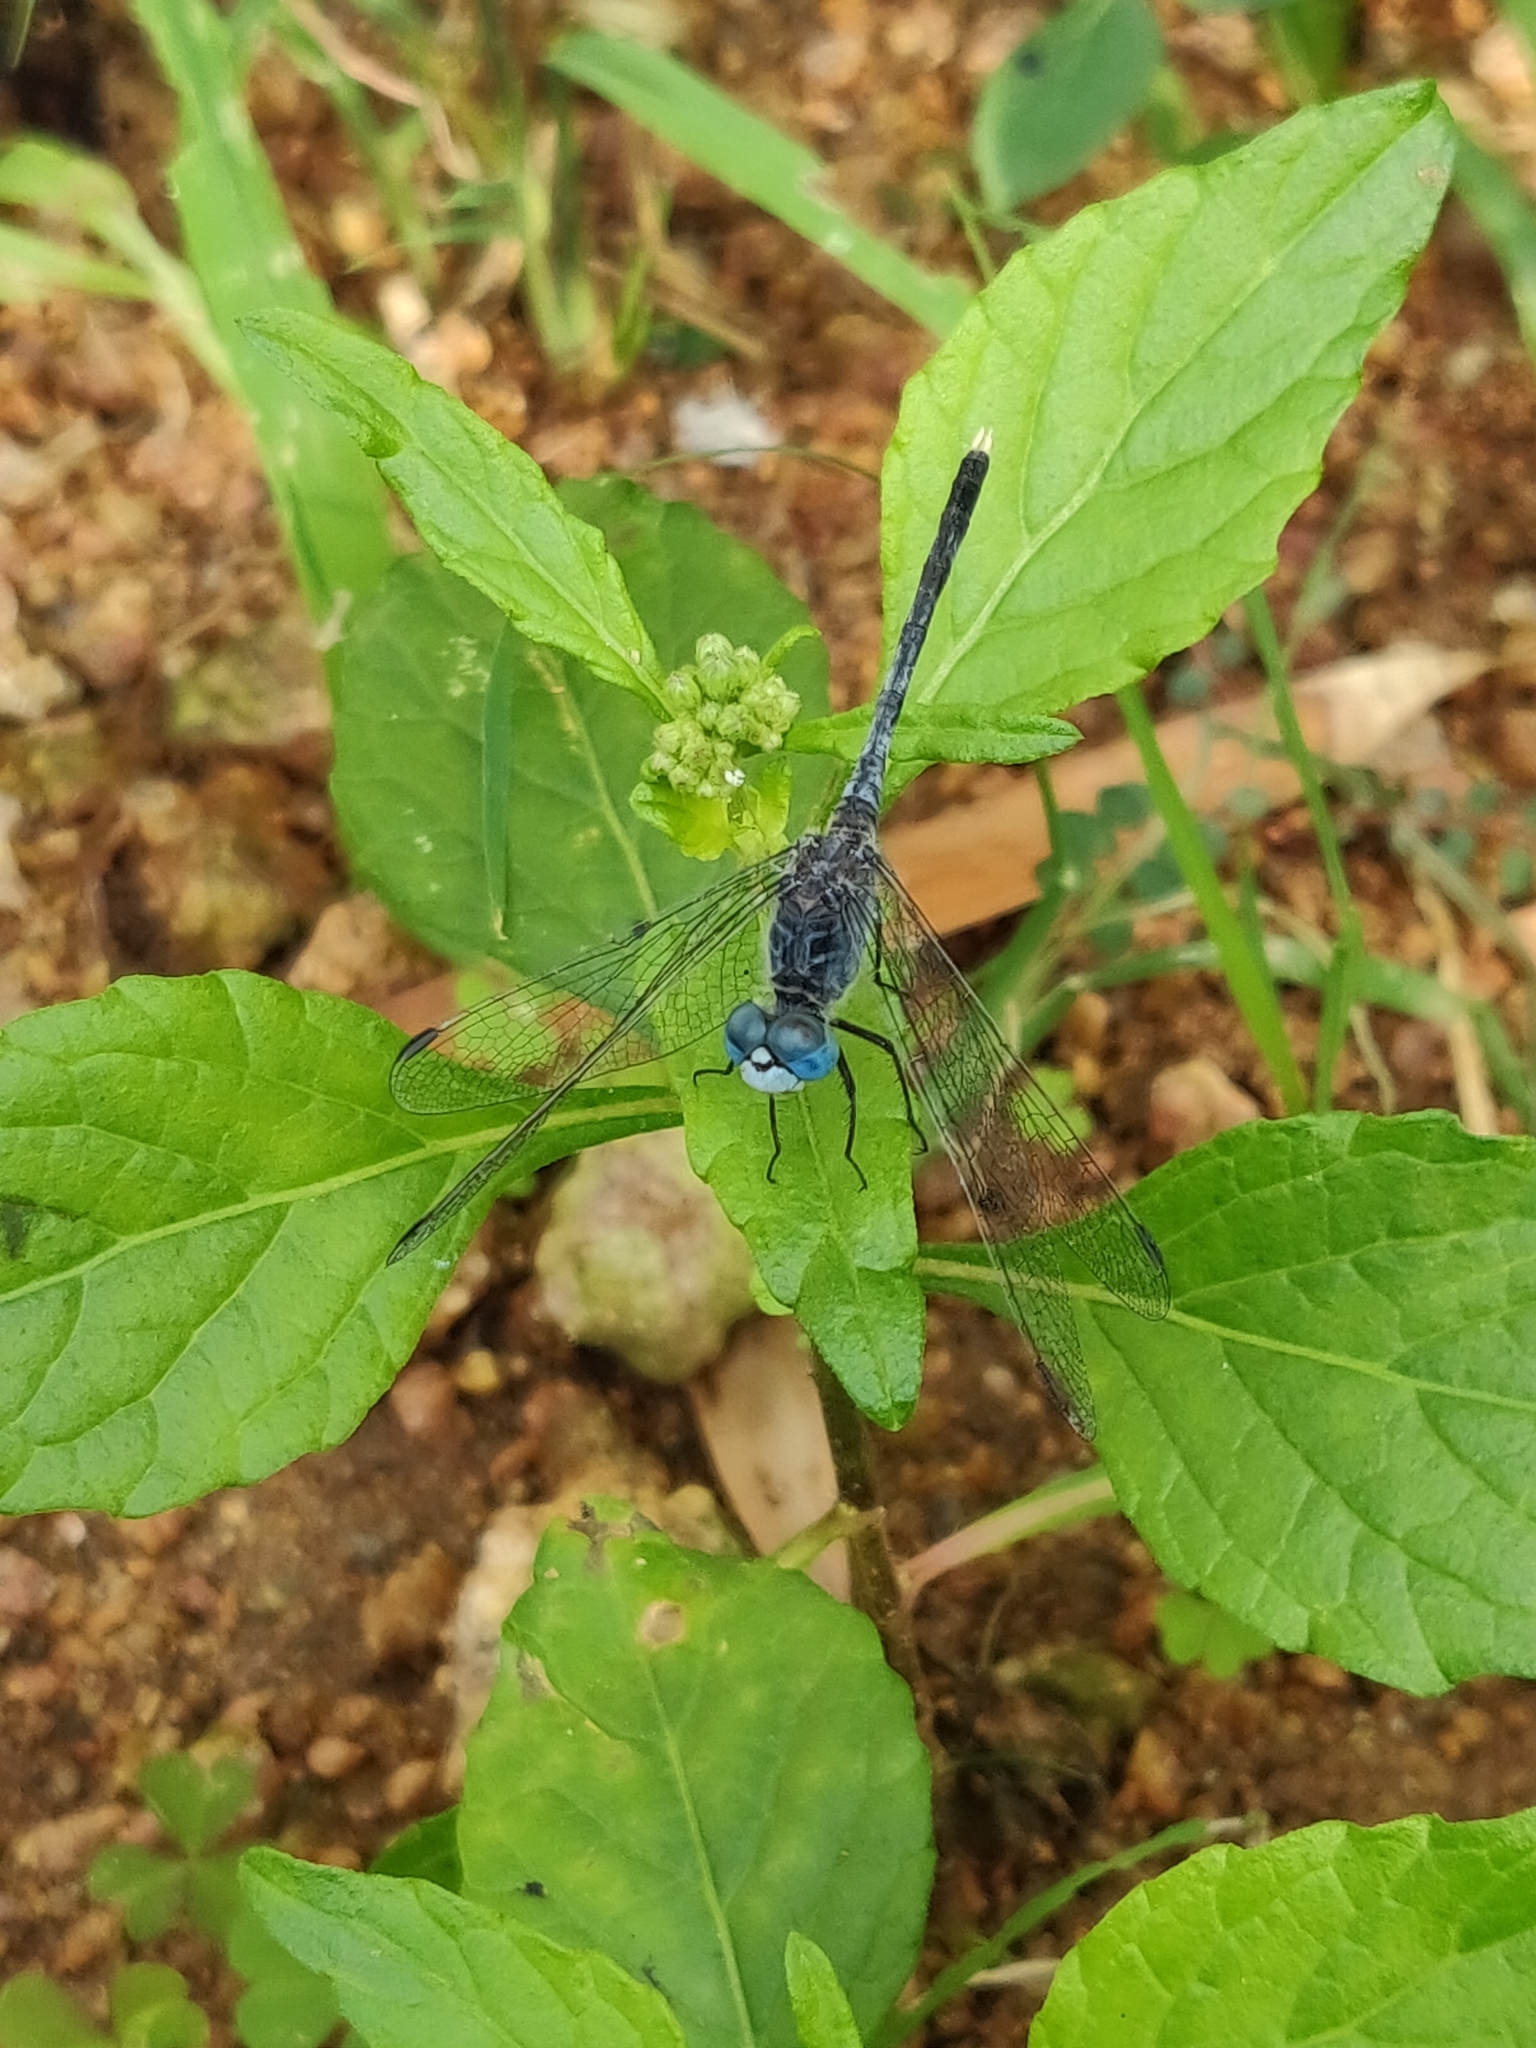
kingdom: Animalia
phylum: Arthropoda
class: Insecta
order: Odonata
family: Libellulidae
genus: Diplacodes
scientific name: Diplacodes trivialis
